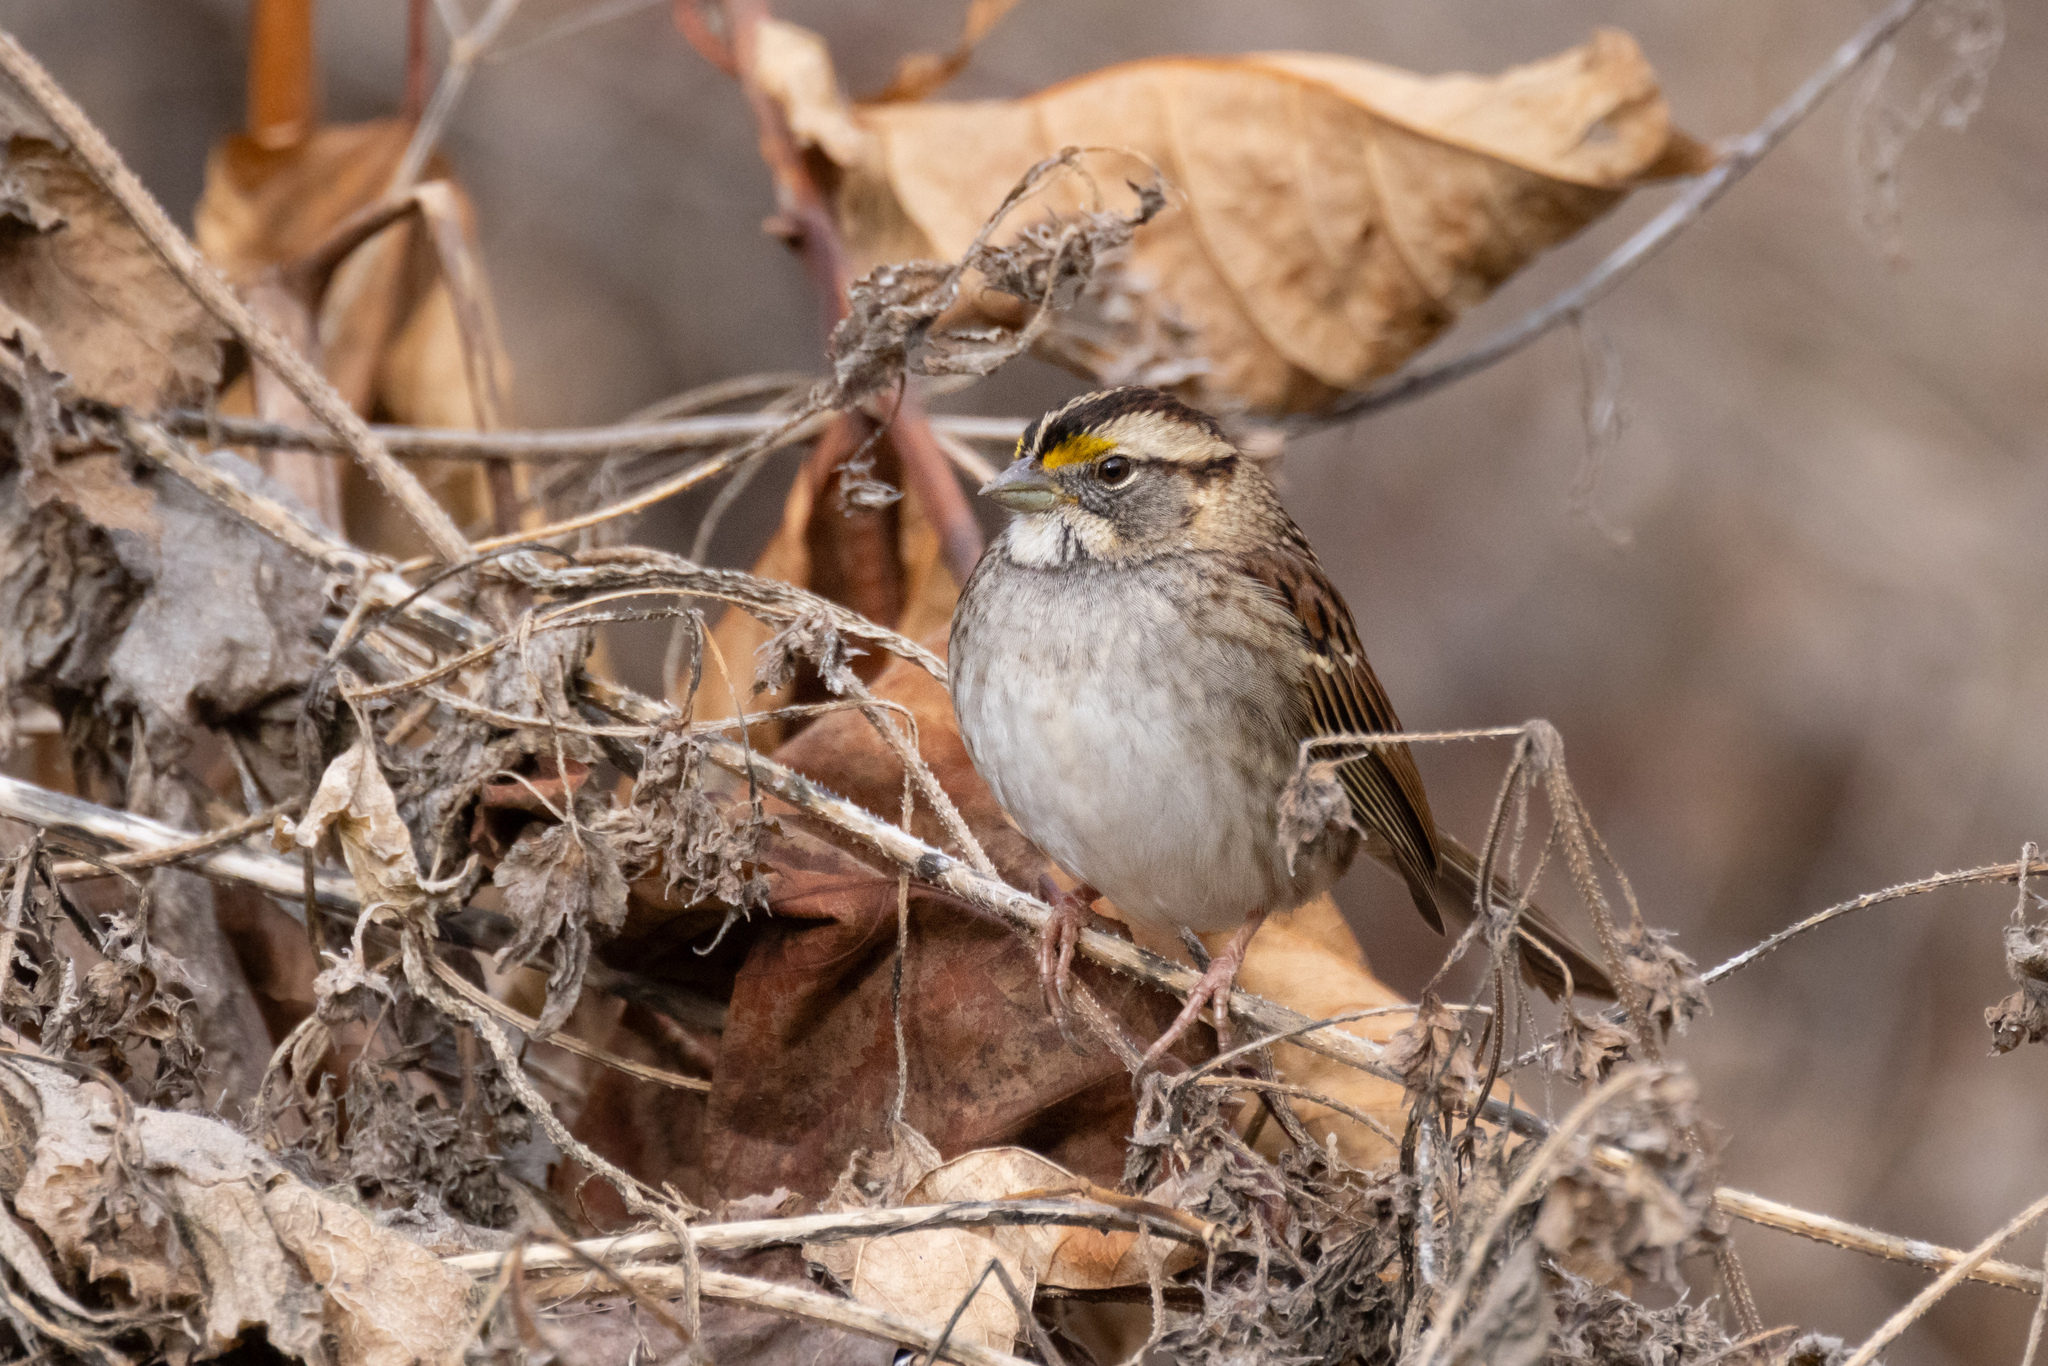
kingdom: Animalia
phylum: Chordata
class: Aves
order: Passeriformes
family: Passerellidae
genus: Zonotrichia
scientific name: Zonotrichia albicollis
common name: White-throated sparrow
